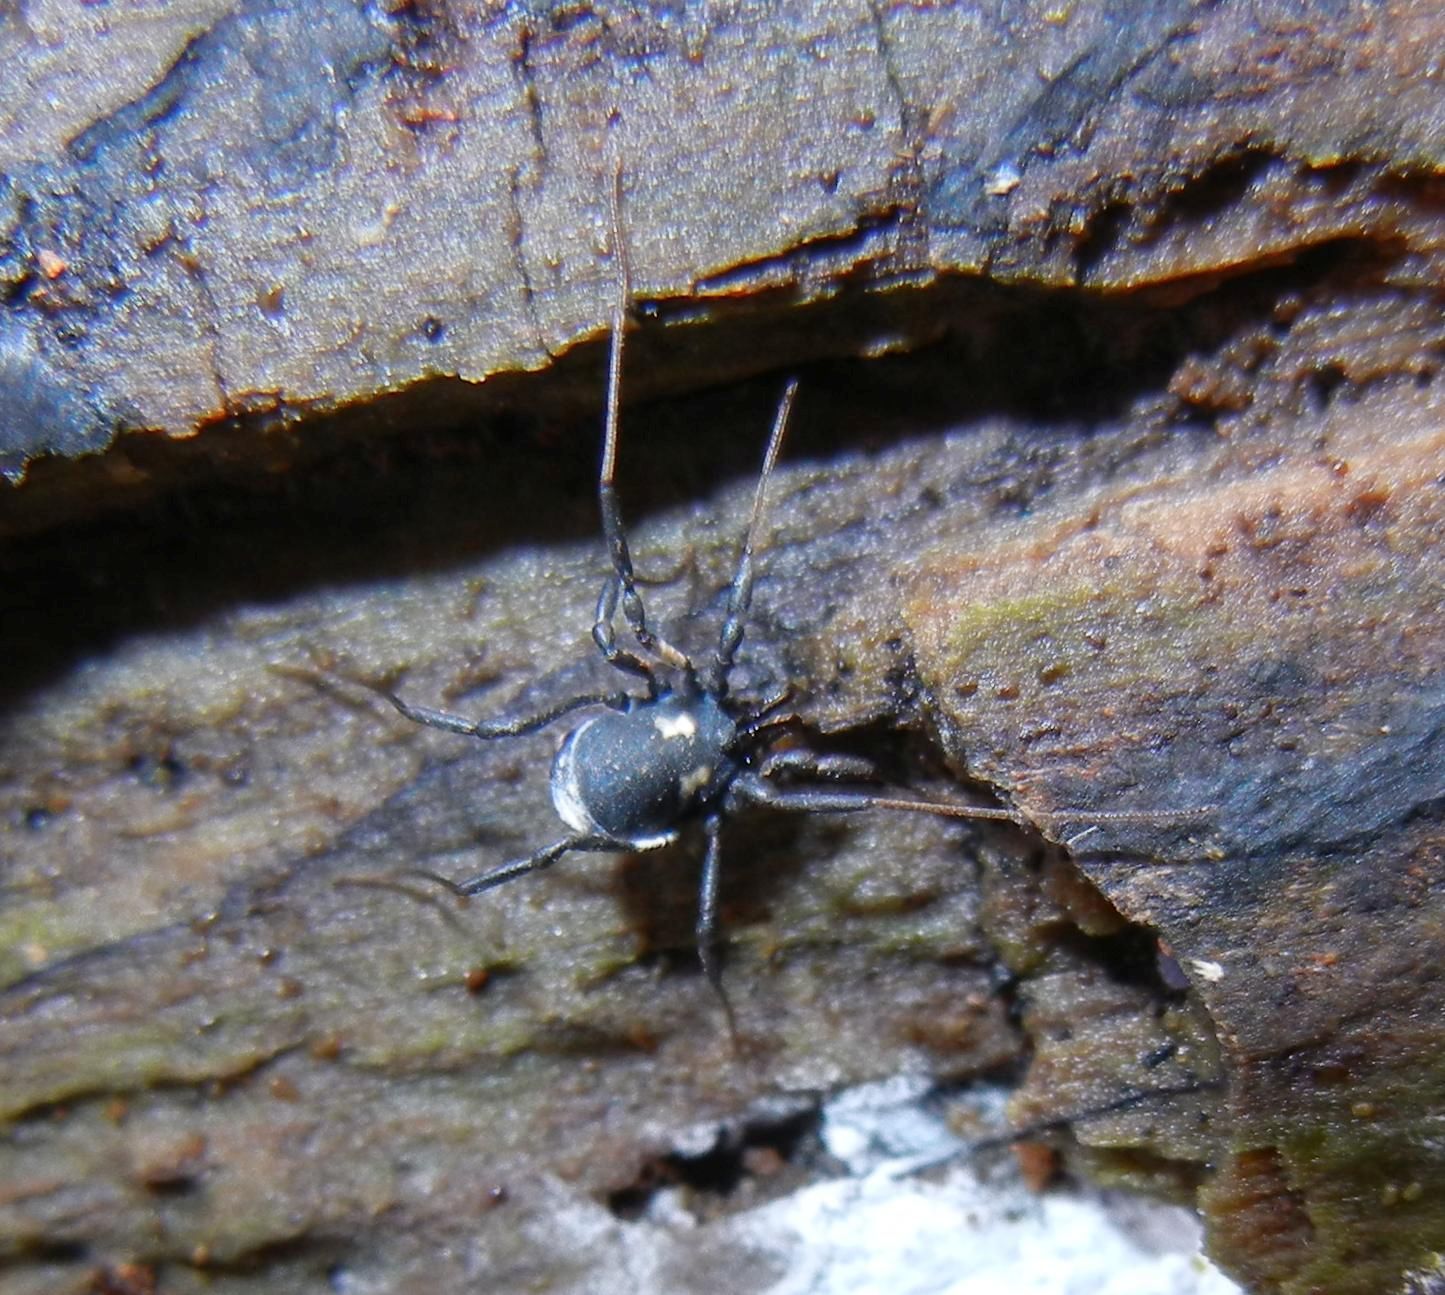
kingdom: Animalia
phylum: Arthropoda
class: Arachnida
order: Opiliones
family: Nemastomatidae
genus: Nemastoma
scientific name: Nemastoma bimaculatum
